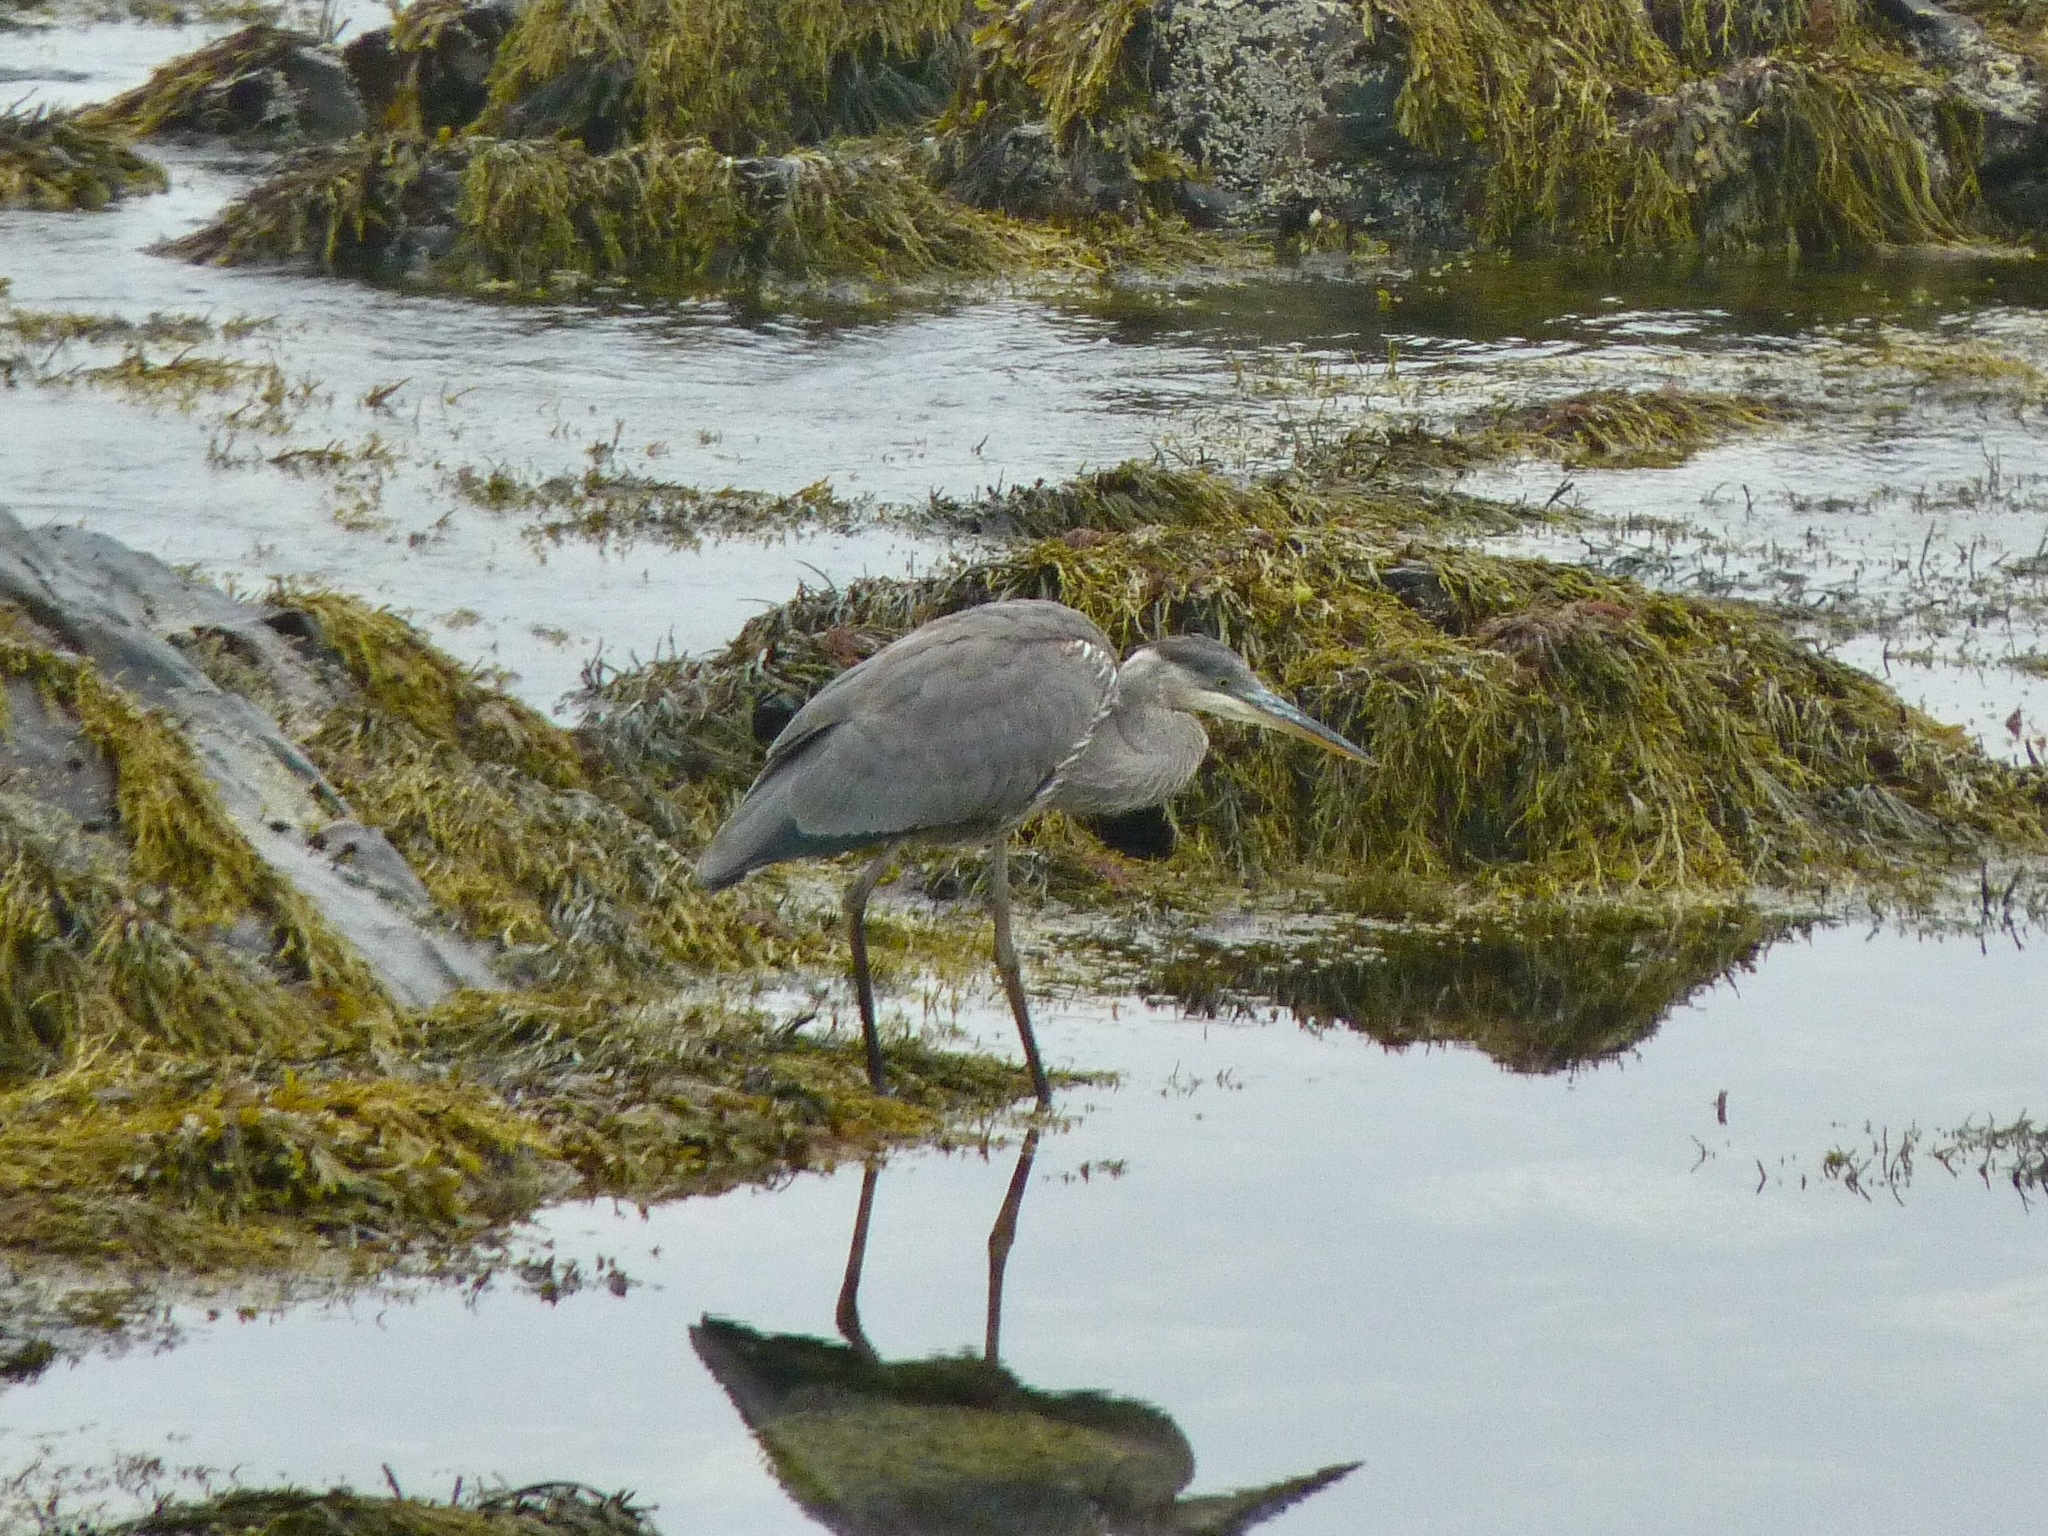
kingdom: Animalia
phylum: Chordata
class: Aves
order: Pelecaniformes
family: Ardeidae
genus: Ardea
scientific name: Ardea herodias
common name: Great blue heron
